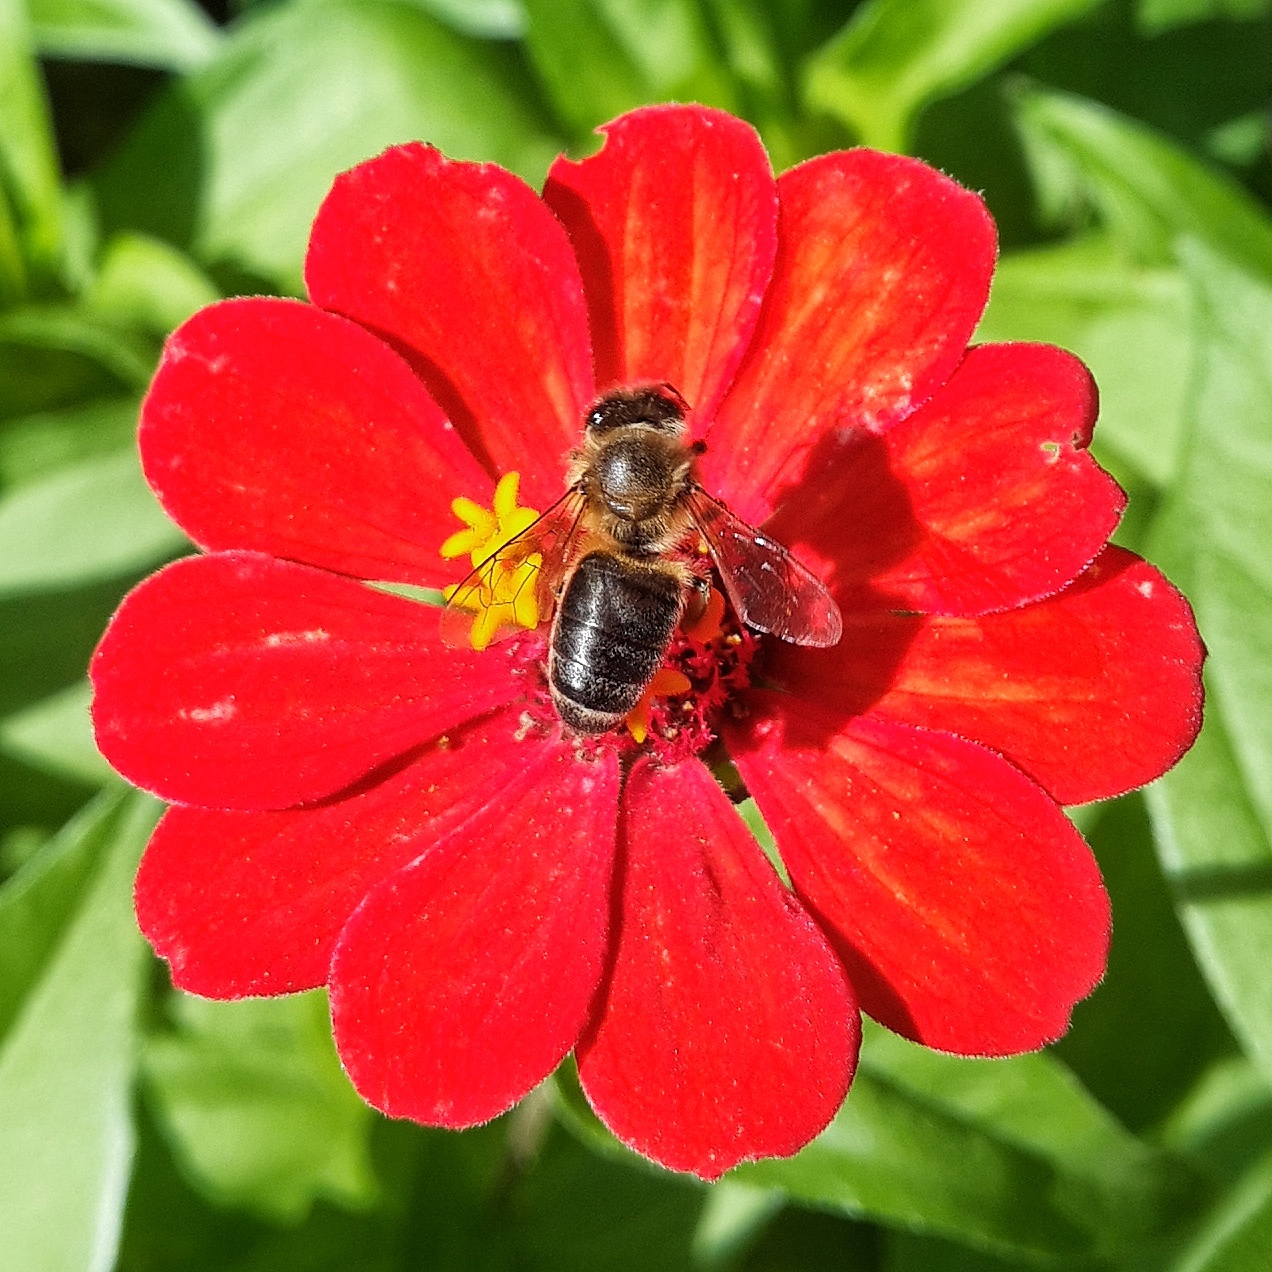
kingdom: Animalia
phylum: Arthropoda
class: Insecta
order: Hymenoptera
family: Apidae
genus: Apis
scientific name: Apis mellifera
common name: Honey bee
